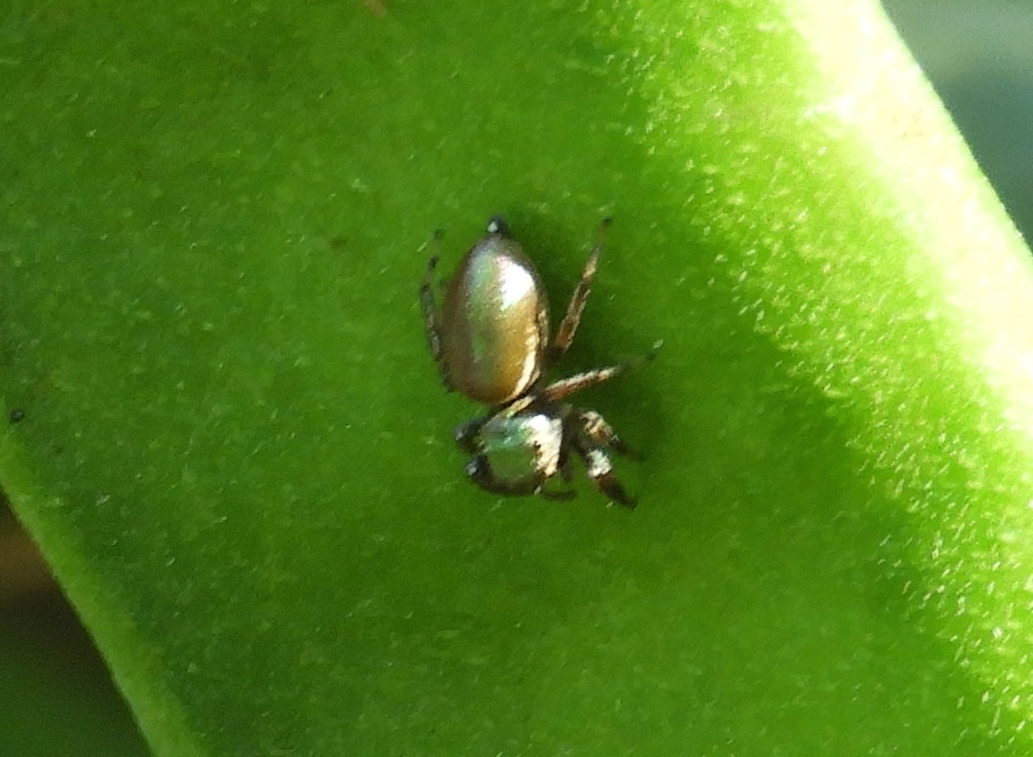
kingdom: Animalia
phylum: Arthropoda
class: Arachnida
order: Araneae
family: Salticidae
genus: Sassacus
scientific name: Sassacus
